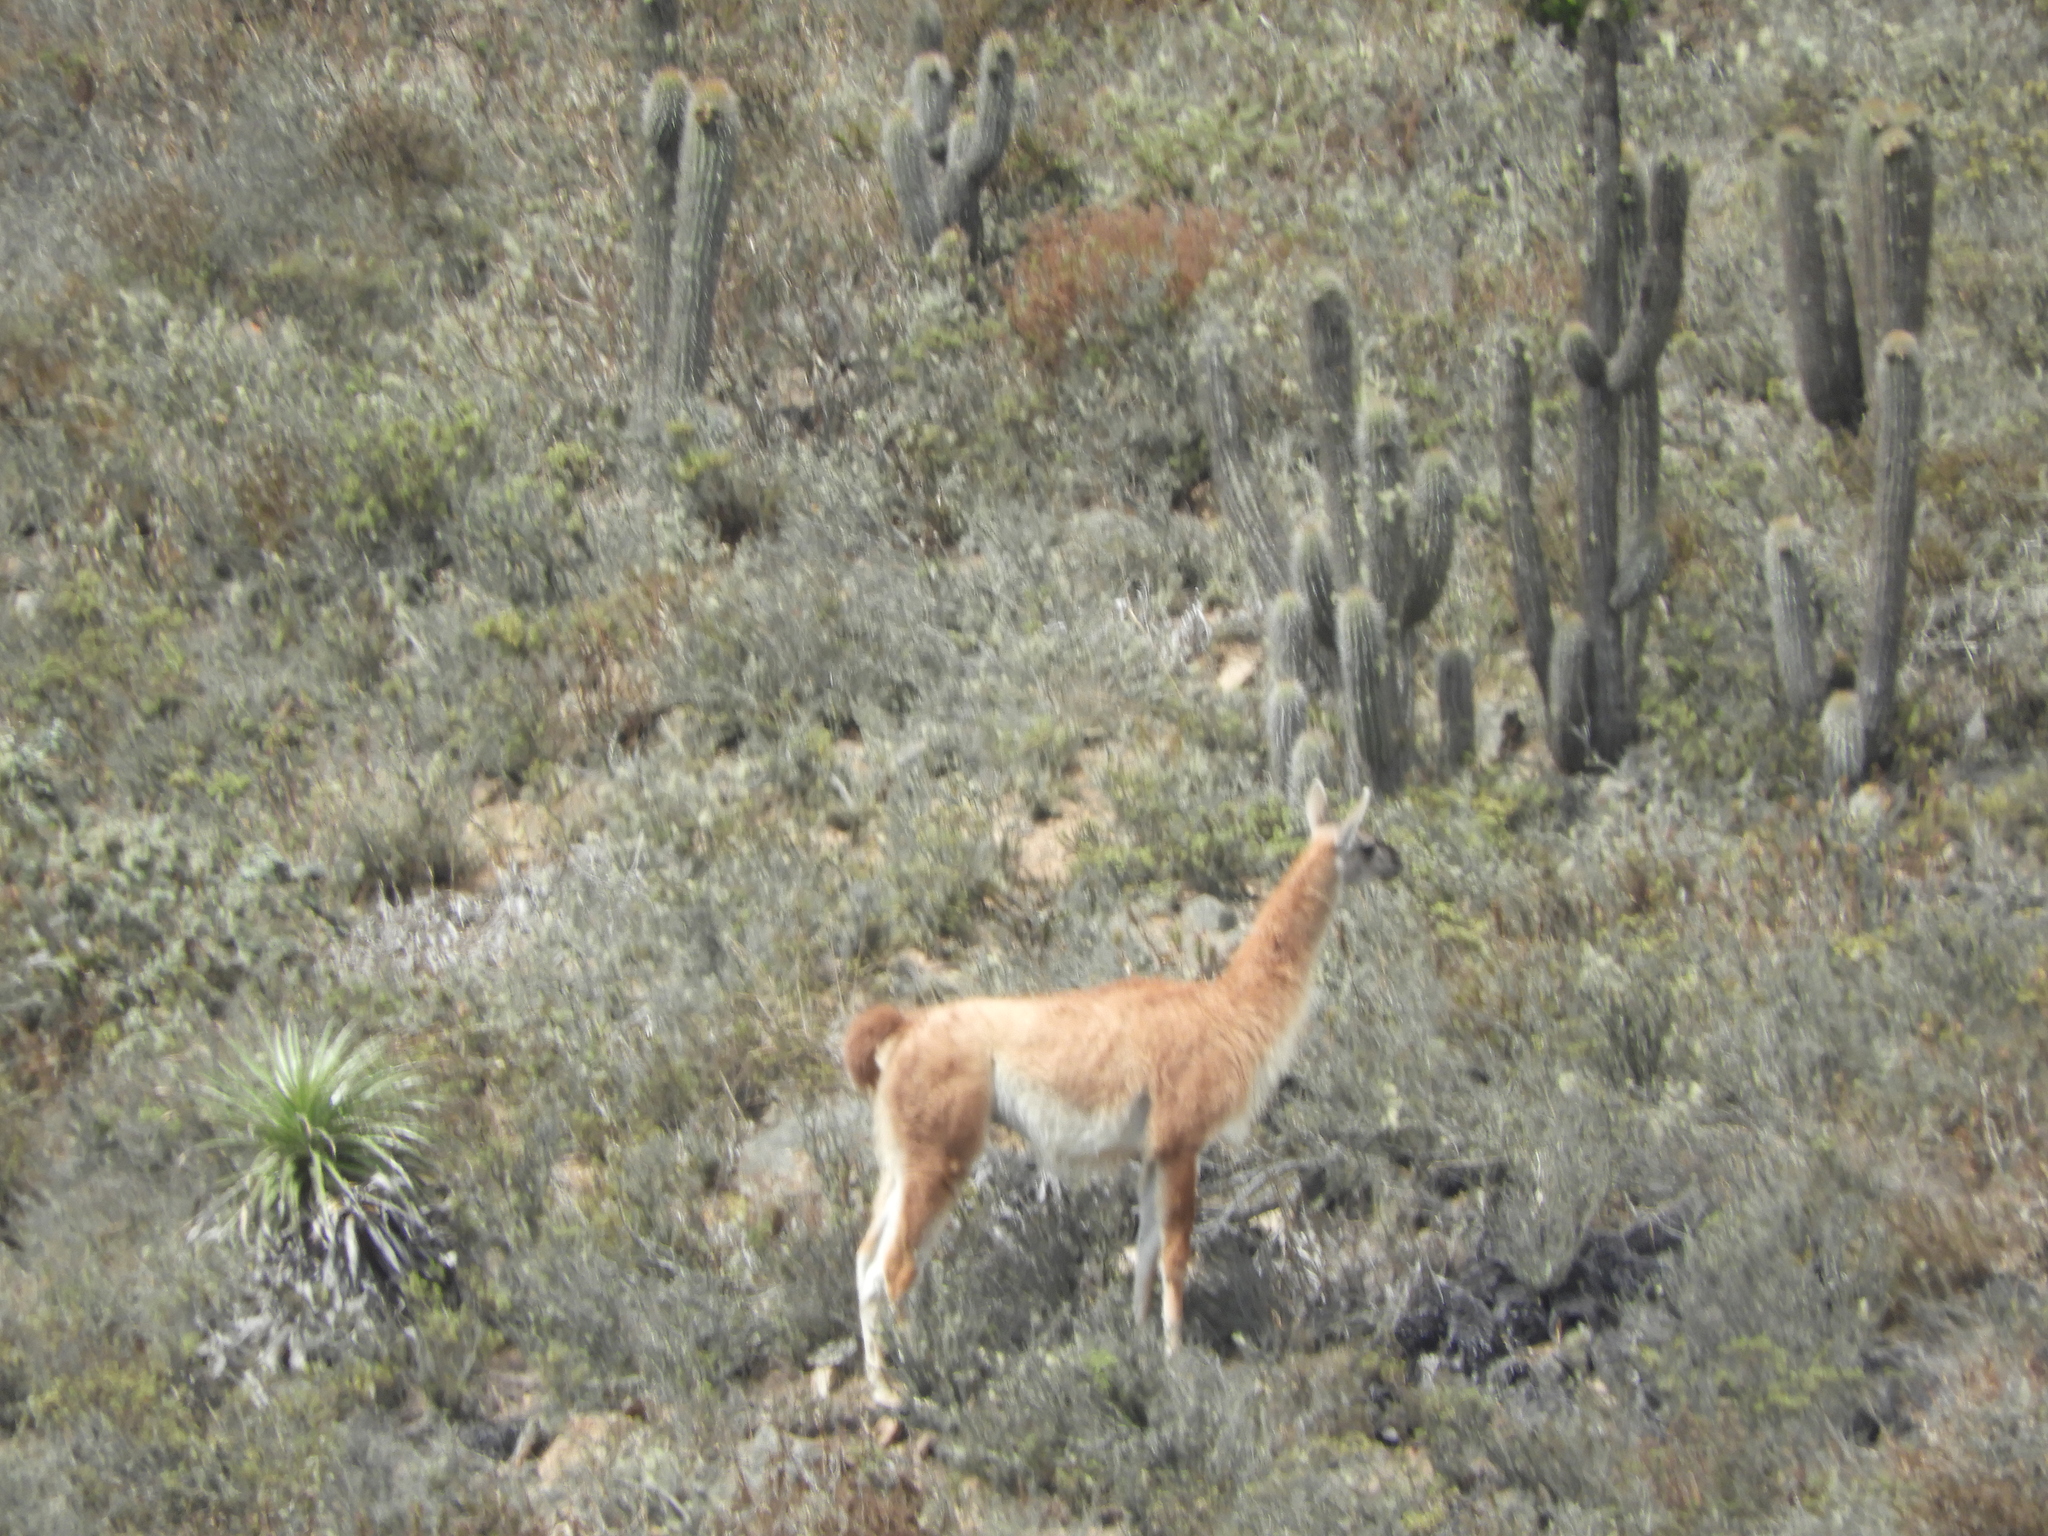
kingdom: Animalia
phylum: Chordata
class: Mammalia
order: Artiodactyla
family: Camelidae
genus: Lama
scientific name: Lama glama
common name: Llama
